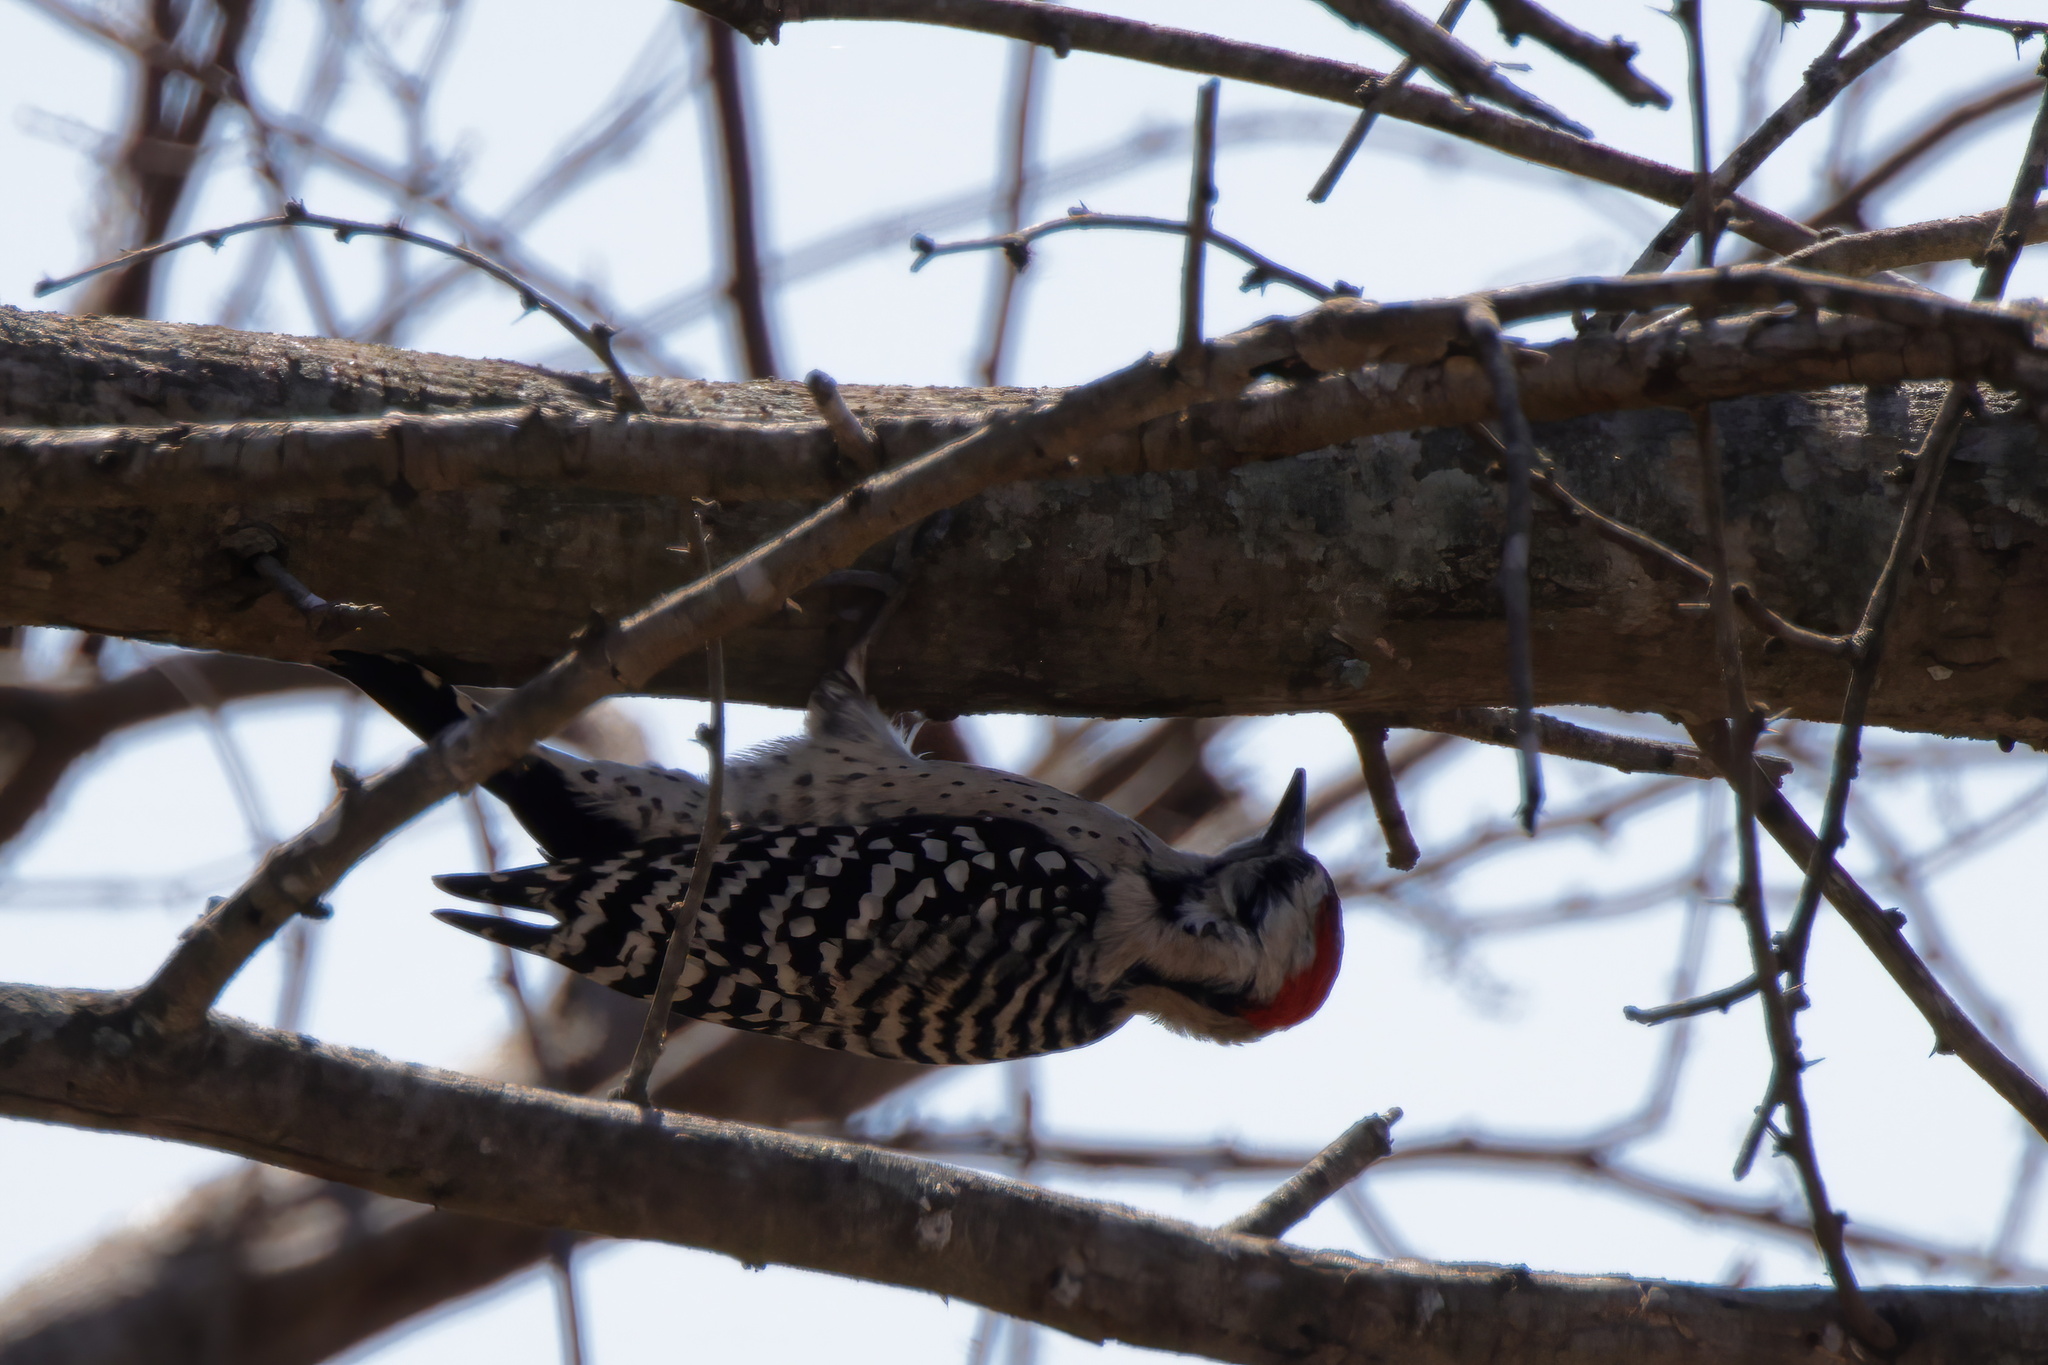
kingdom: Animalia
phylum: Chordata
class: Aves
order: Piciformes
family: Picidae
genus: Dryobates
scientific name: Dryobates scalaris
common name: Ladder-backed woodpecker
